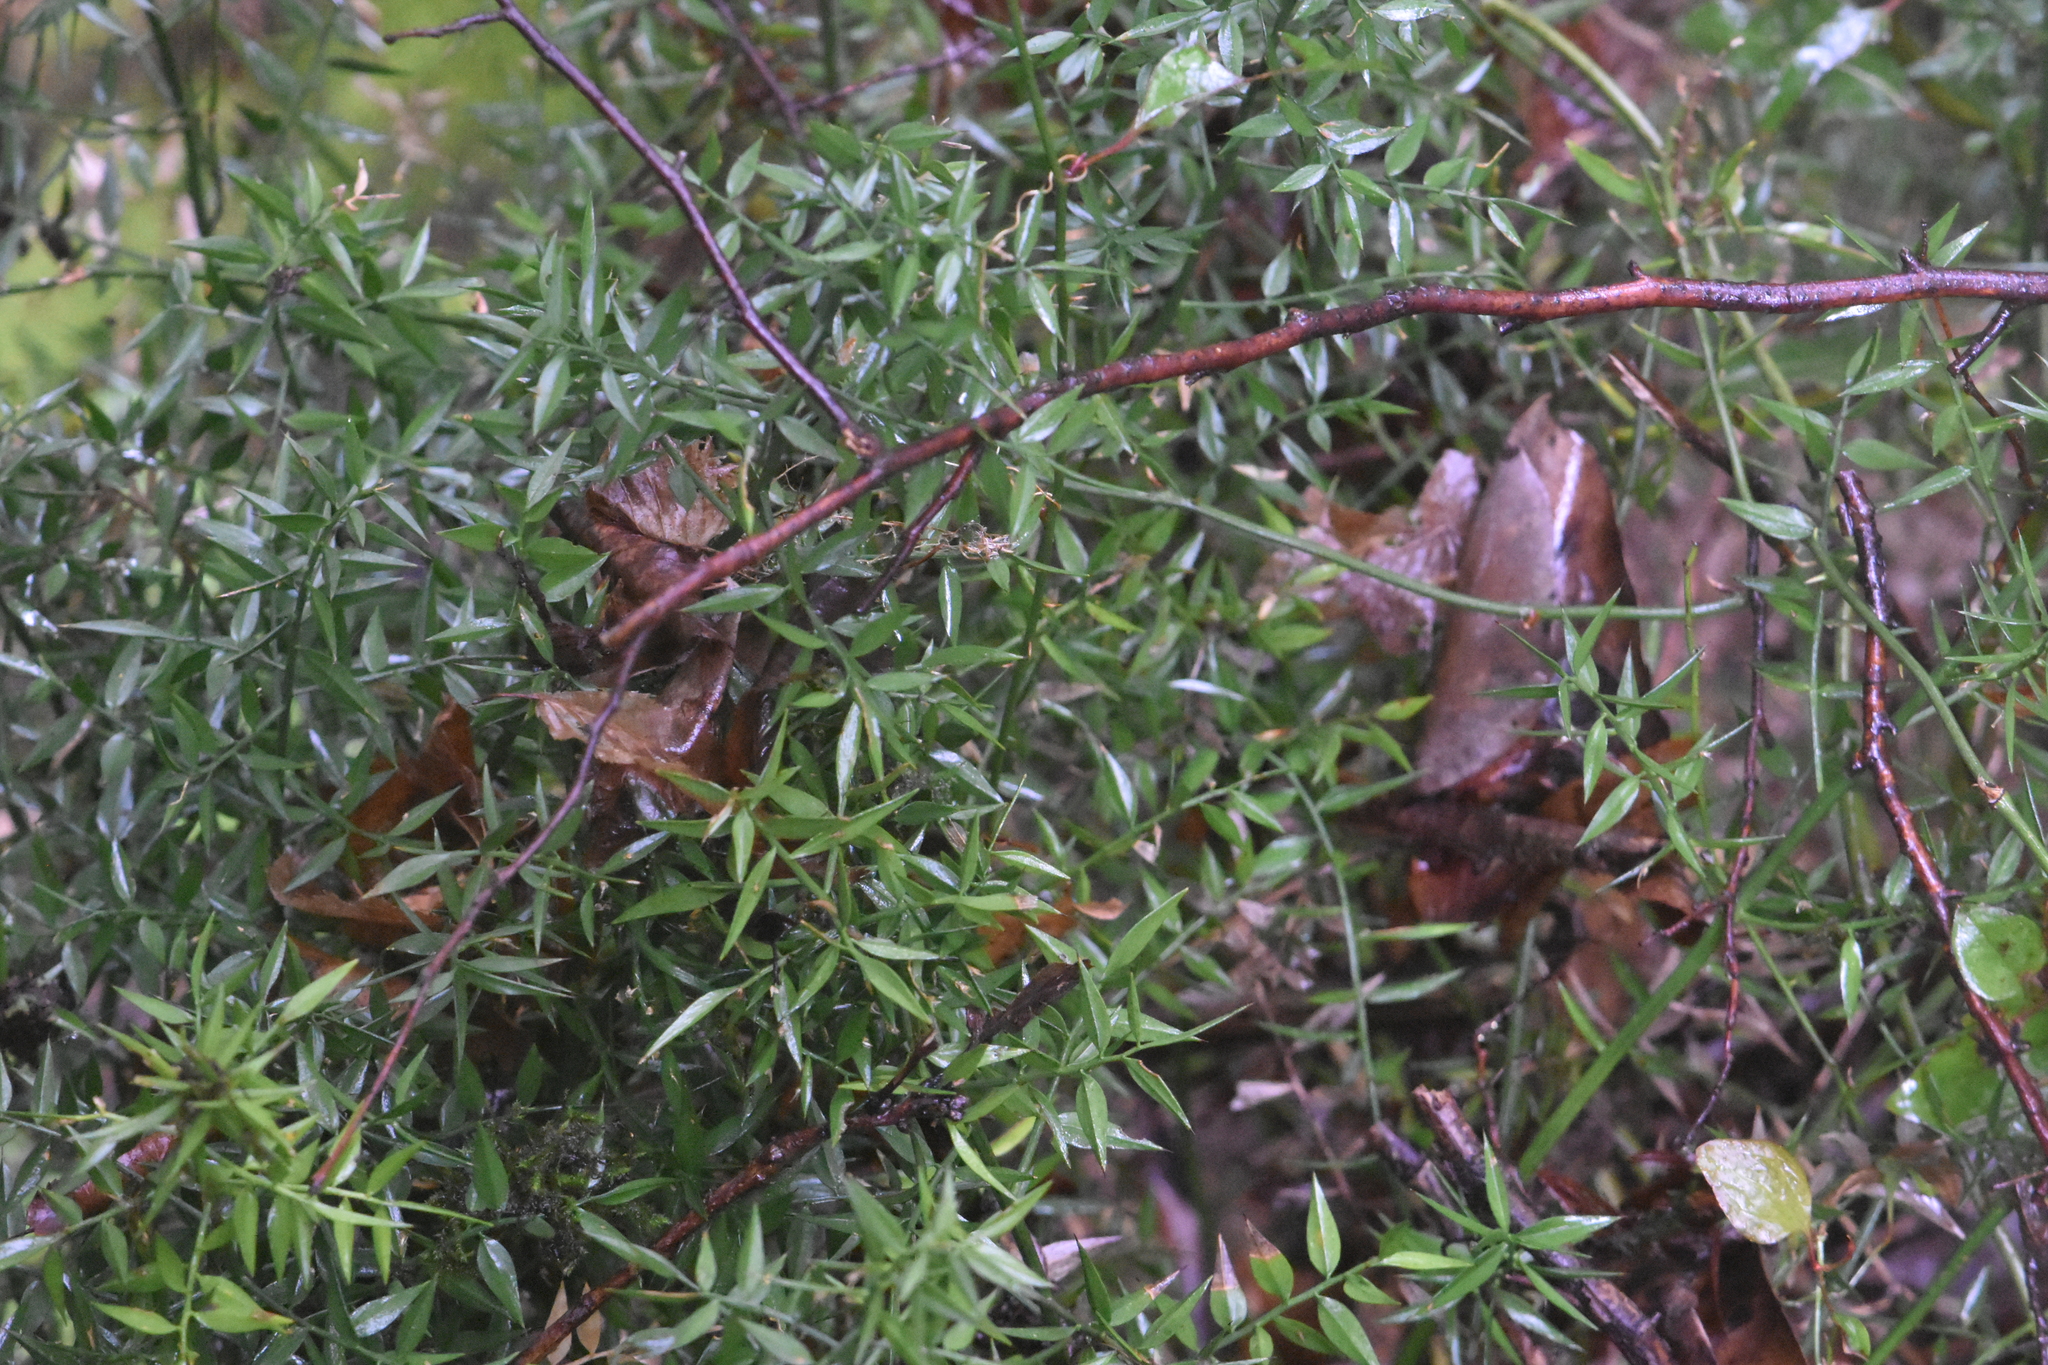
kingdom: Plantae
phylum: Tracheophyta
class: Liliopsida
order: Asparagales
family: Asparagaceae
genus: Ruscus
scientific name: Ruscus aculeatus
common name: Butcher's-broom
